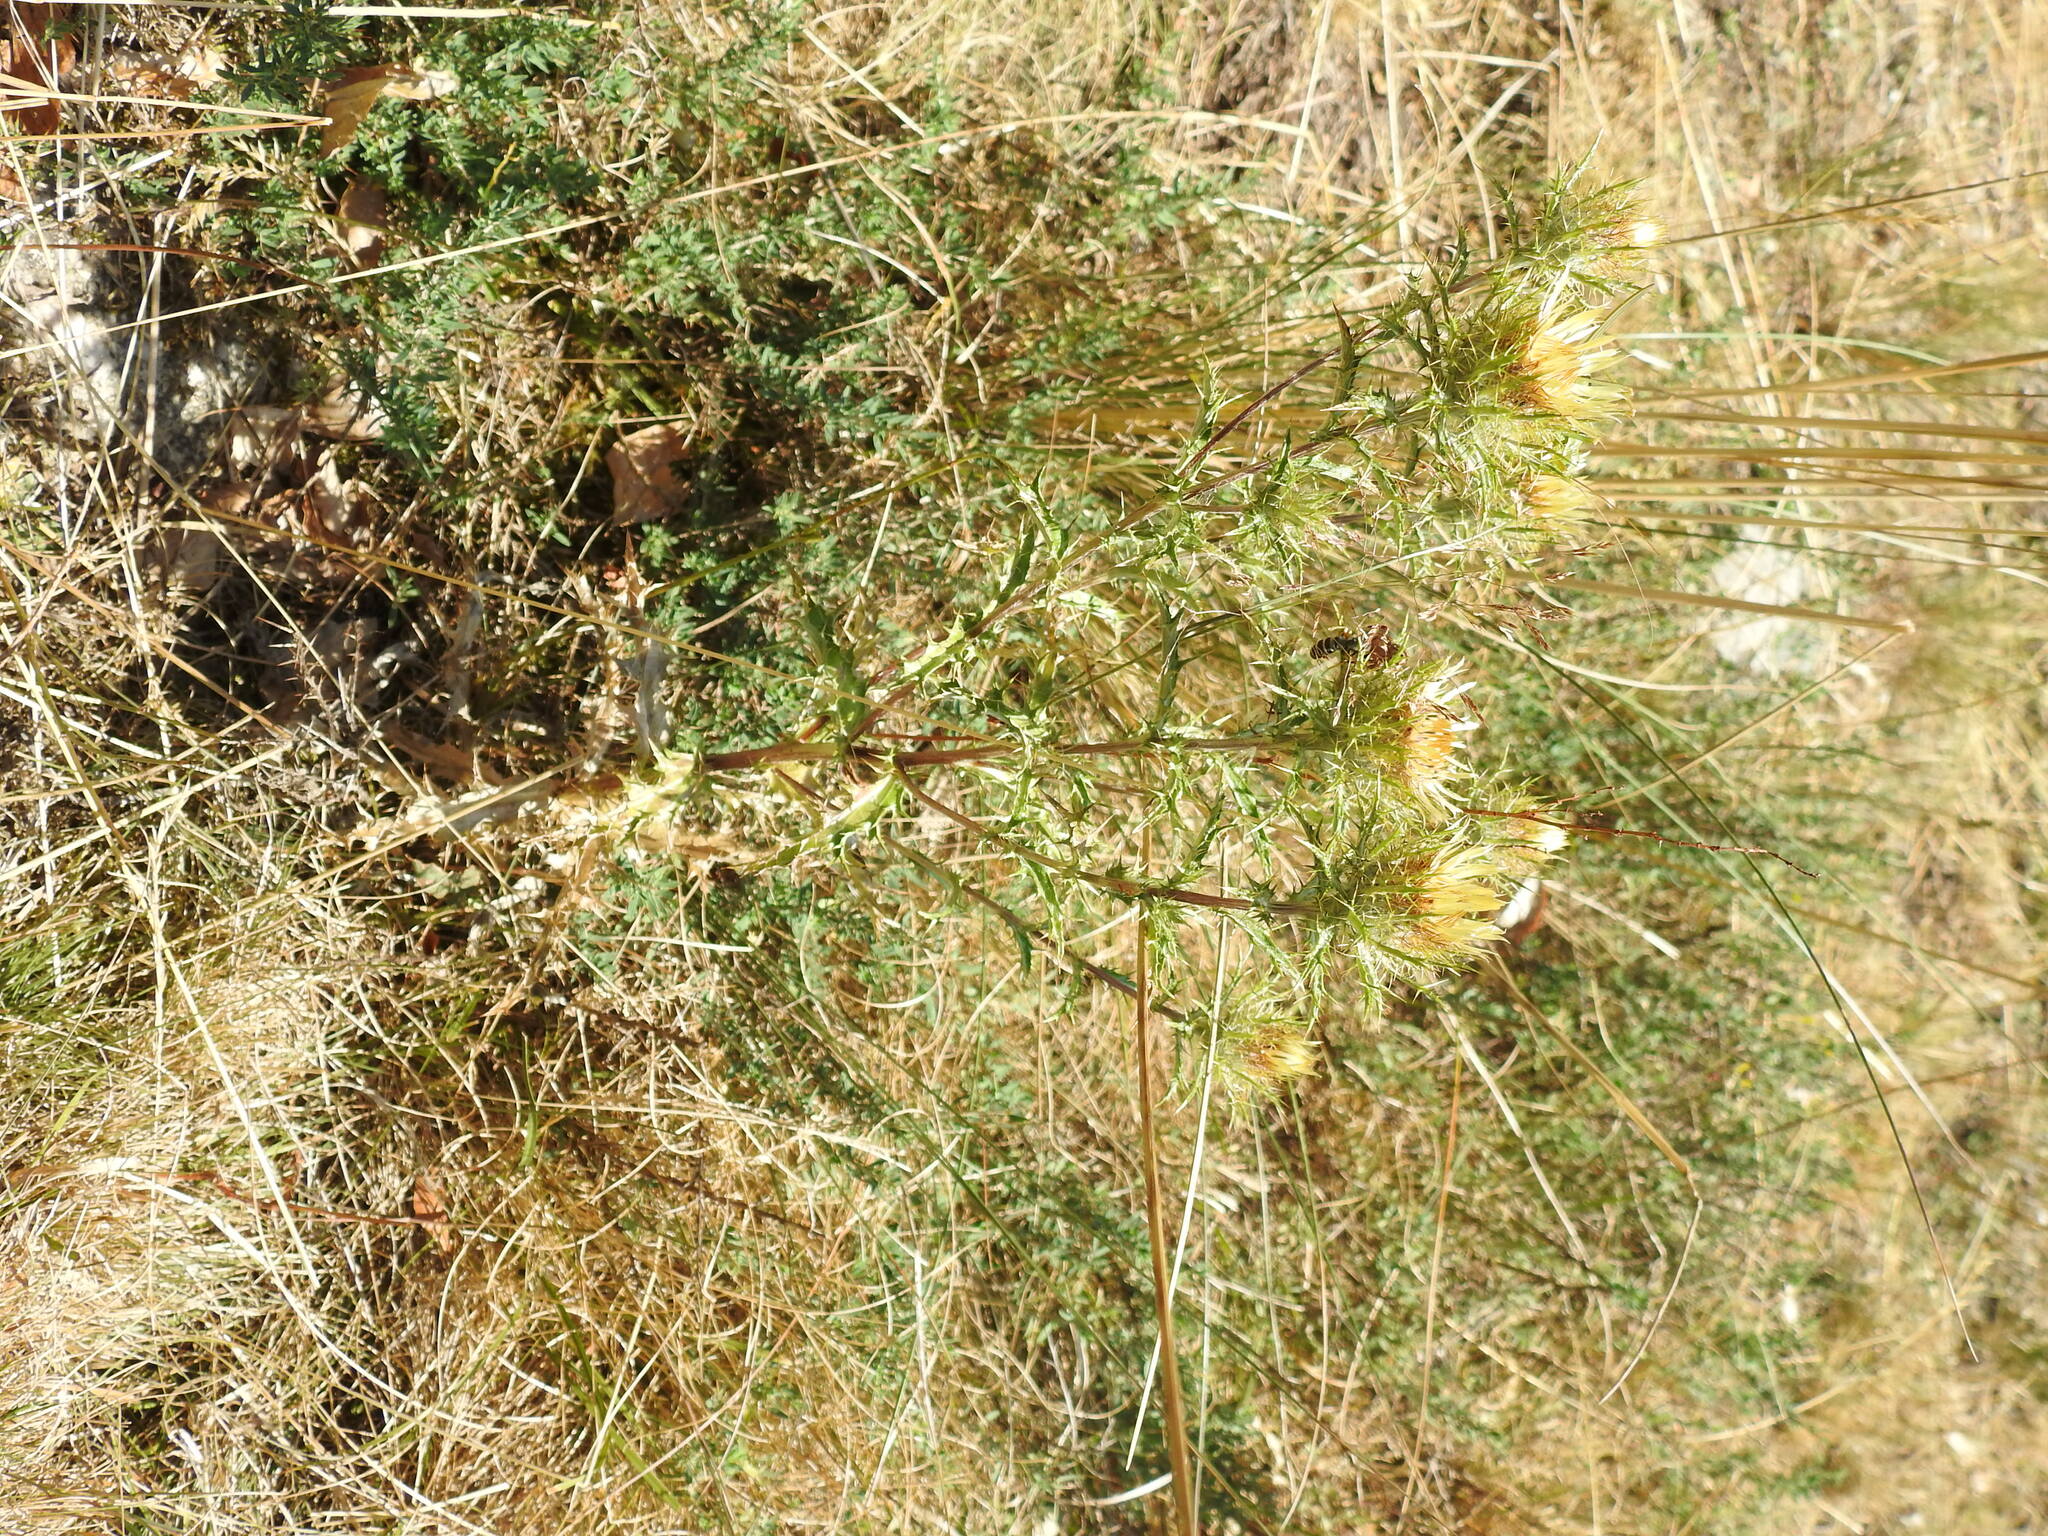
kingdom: Plantae
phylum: Tracheophyta
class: Magnoliopsida
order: Asterales
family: Asteraceae
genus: Carlina
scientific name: Carlina vulgaris
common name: Carline thistle
